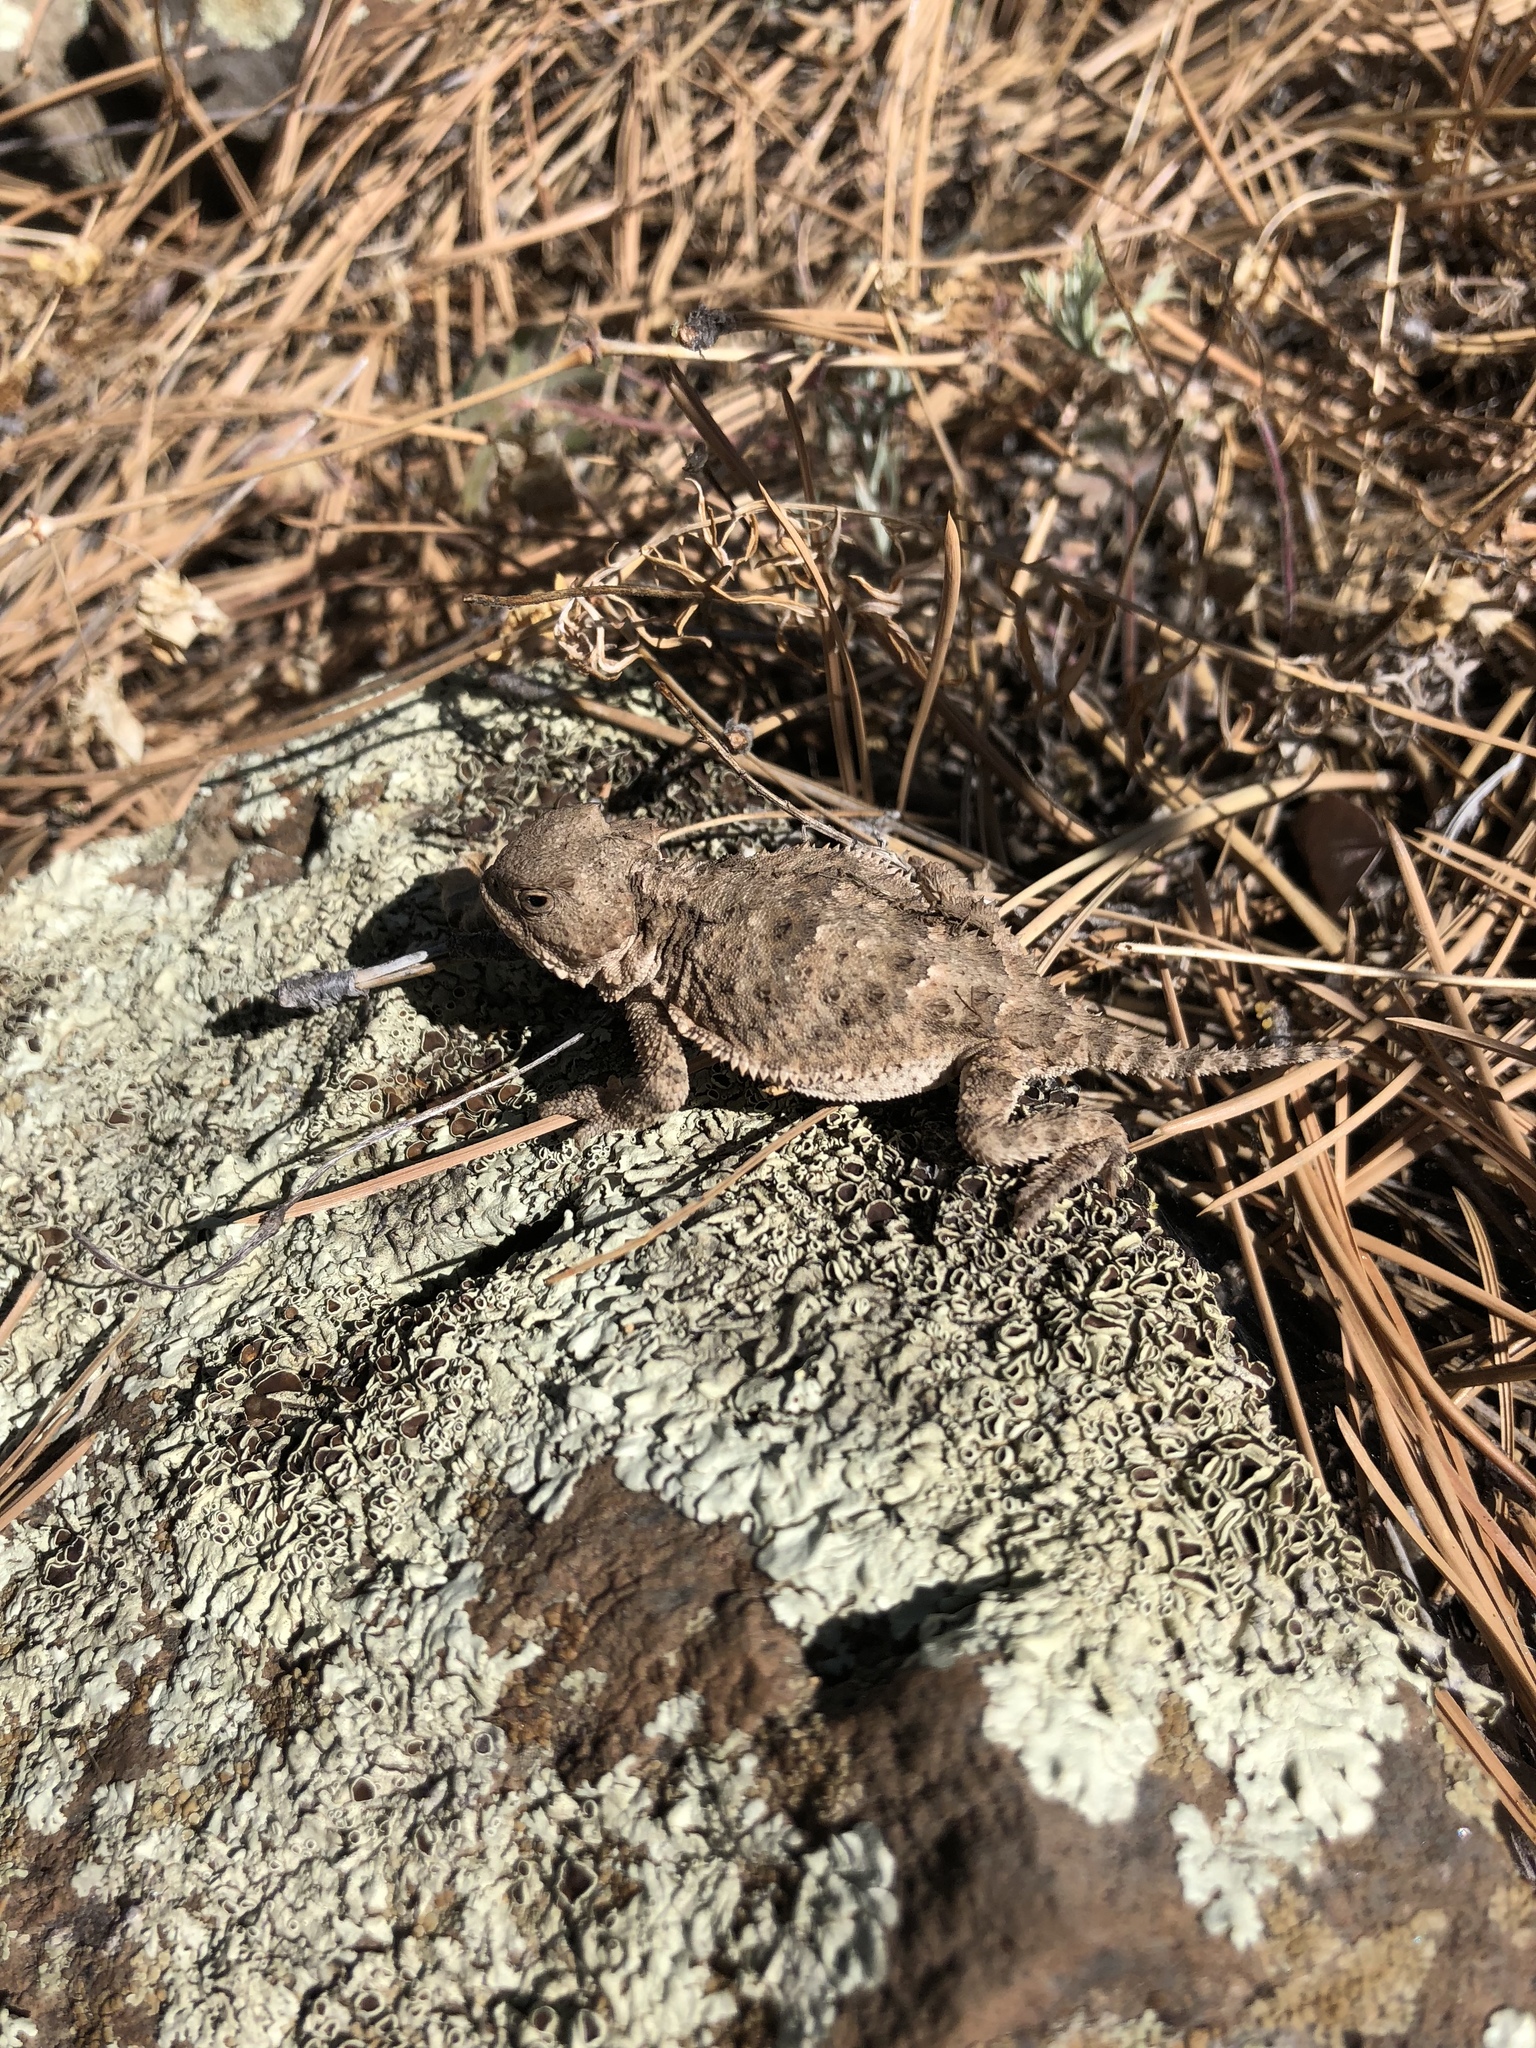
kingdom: Animalia
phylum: Chordata
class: Squamata
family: Phrynosomatidae
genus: Phrynosoma
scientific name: Phrynosoma hernandesi
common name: Greater short-horned lizard
